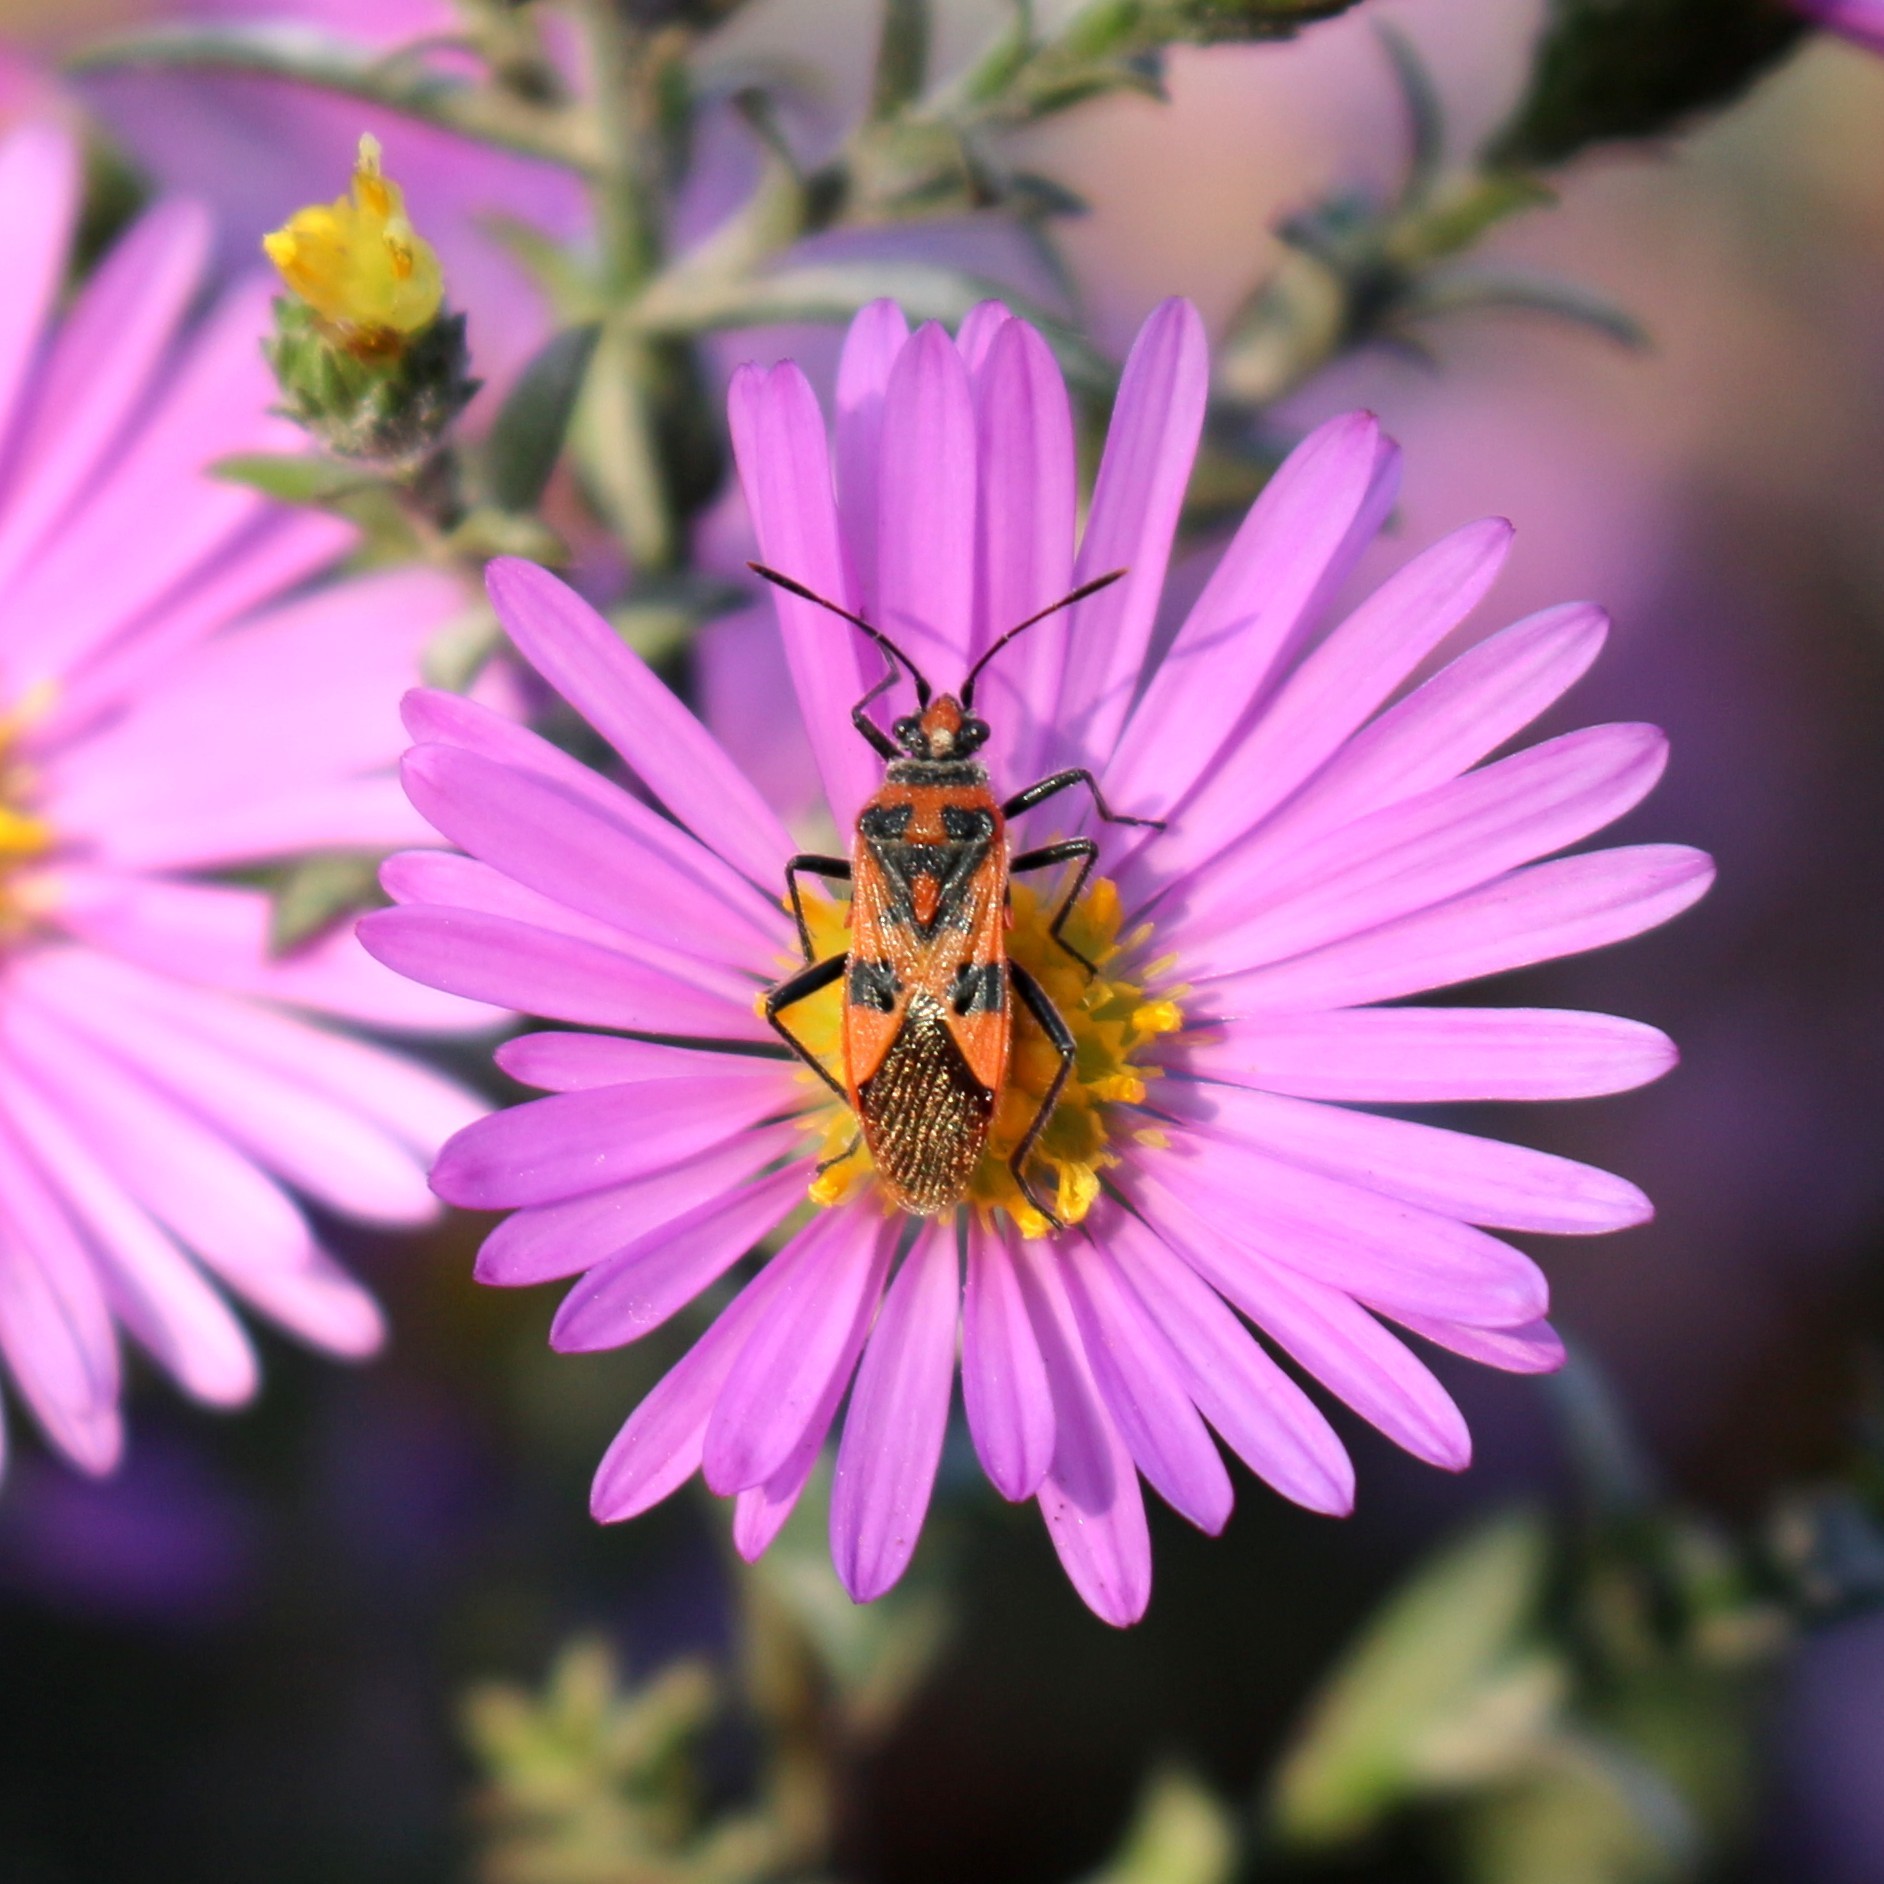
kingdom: Animalia
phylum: Arthropoda
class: Insecta
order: Hemiptera
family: Rhopalidae
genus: Corizus
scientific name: Corizus hyoscyami
